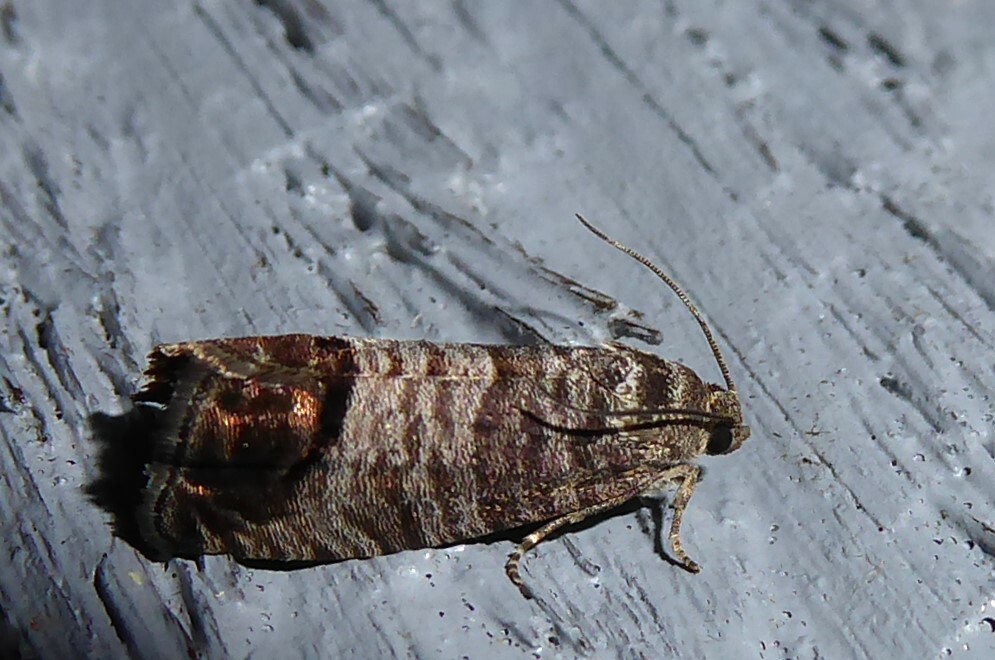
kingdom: Animalia
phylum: Arthropoda
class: Insecta
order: Lepidoptera
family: Tortricidae
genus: Cydia
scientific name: Cydia pomonella
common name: Codling moth
